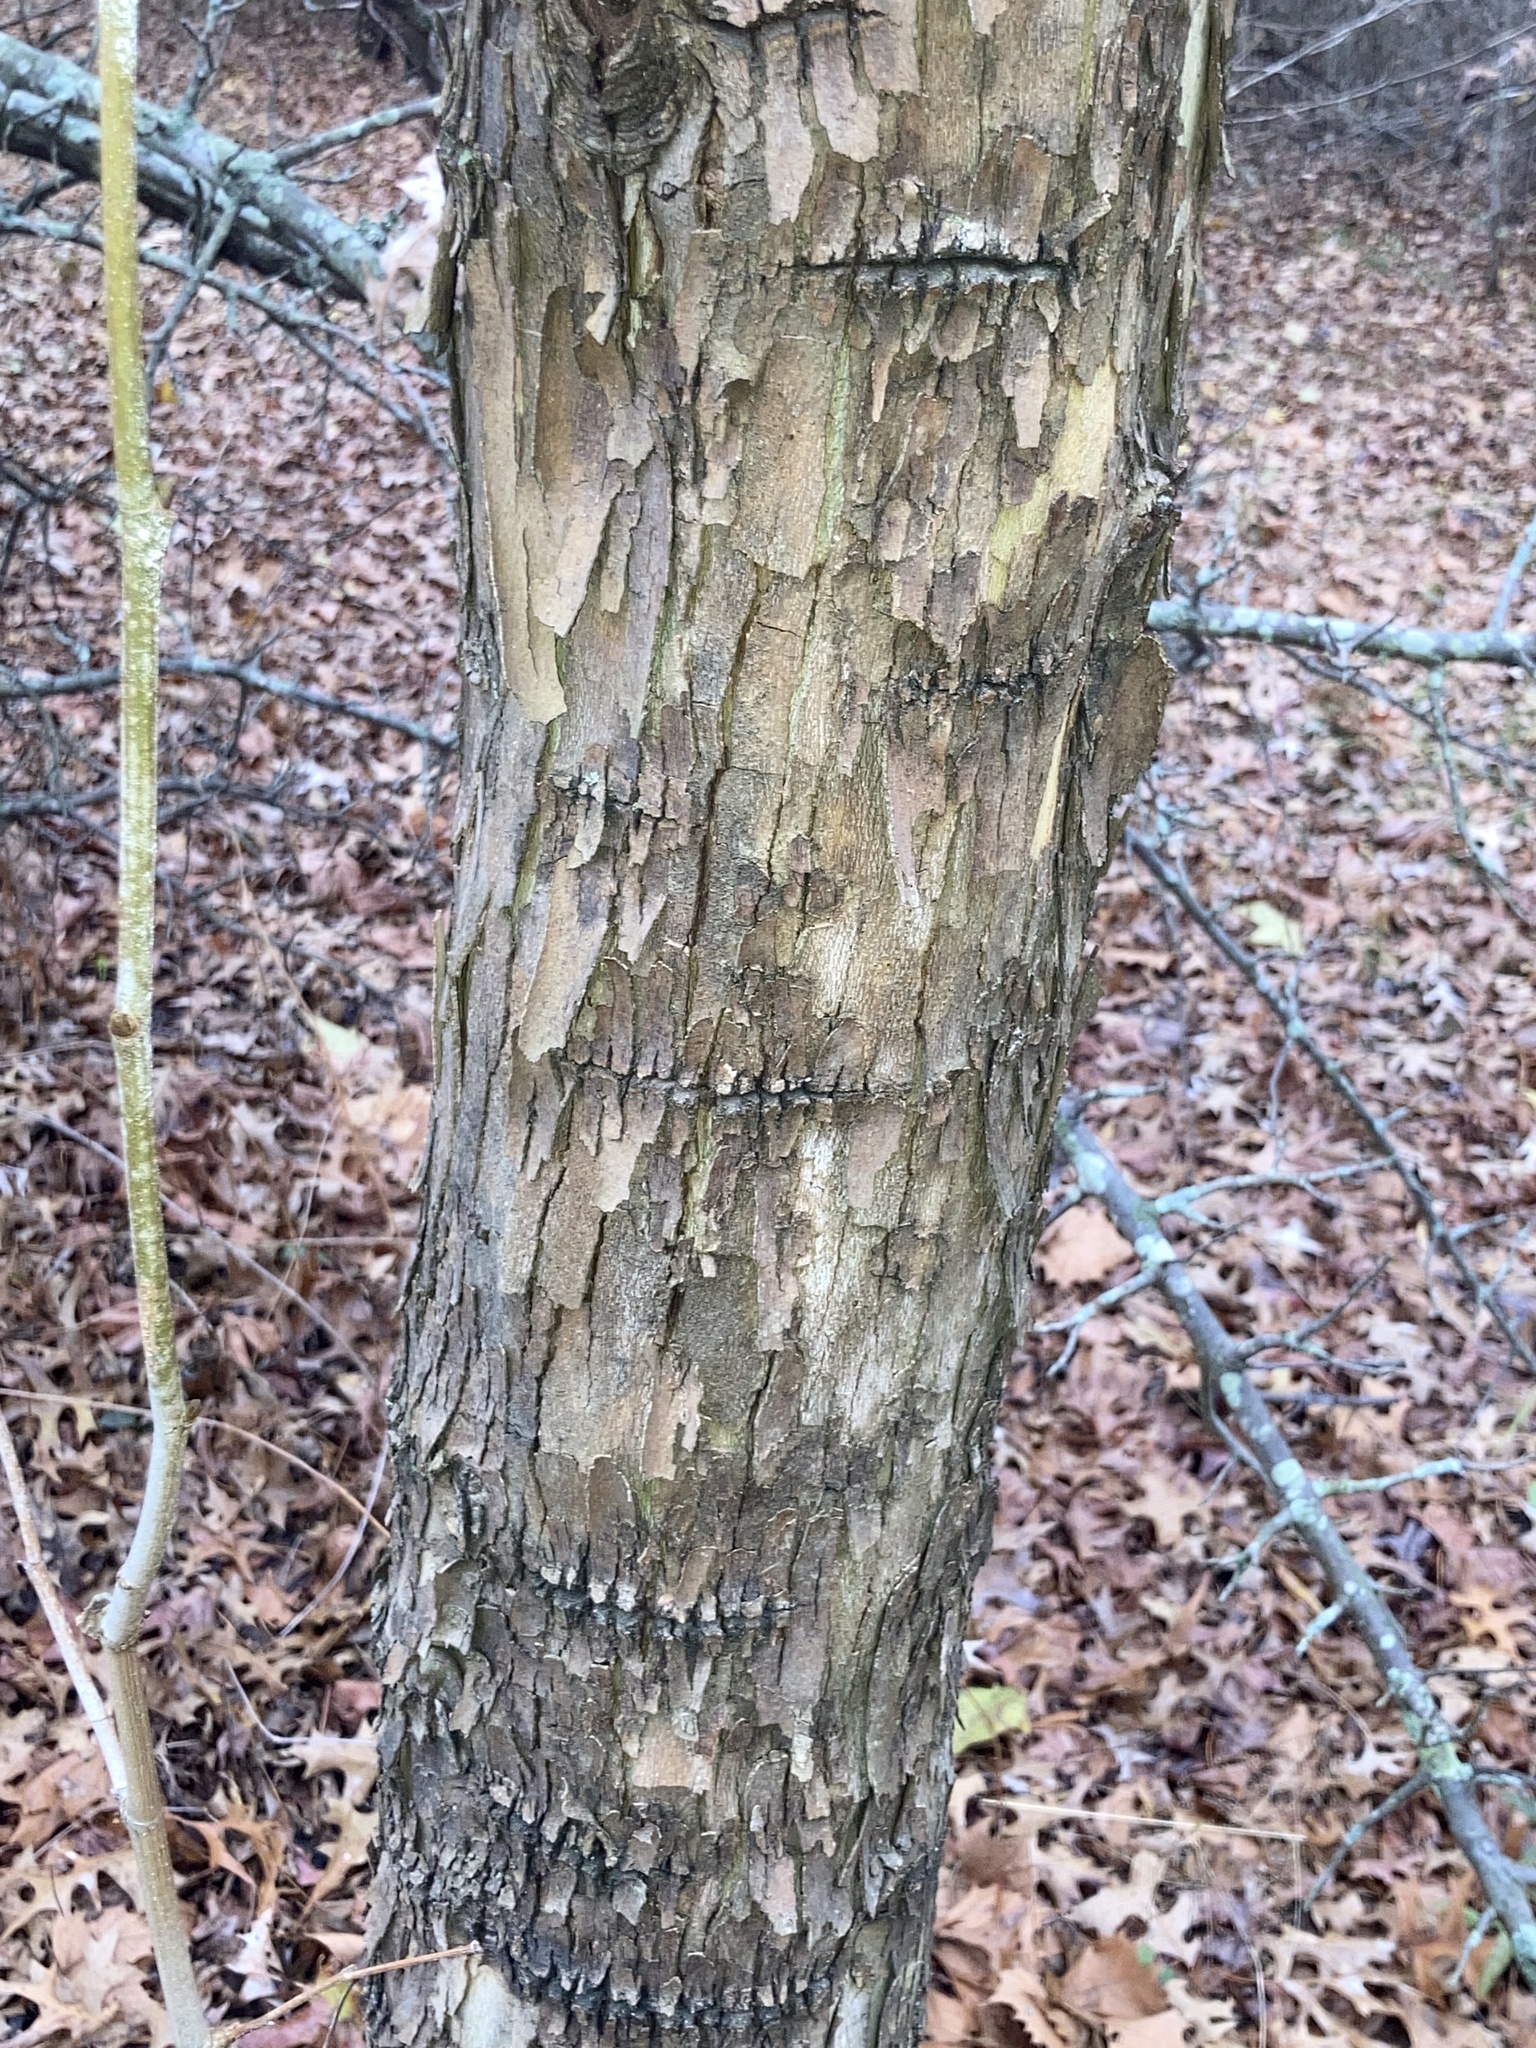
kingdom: Plantae
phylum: Tracheophyta
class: Magnoliopsida
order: Proteales
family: Platanaceae
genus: Platanus
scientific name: Platanus occidentalis
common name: American sycamore
